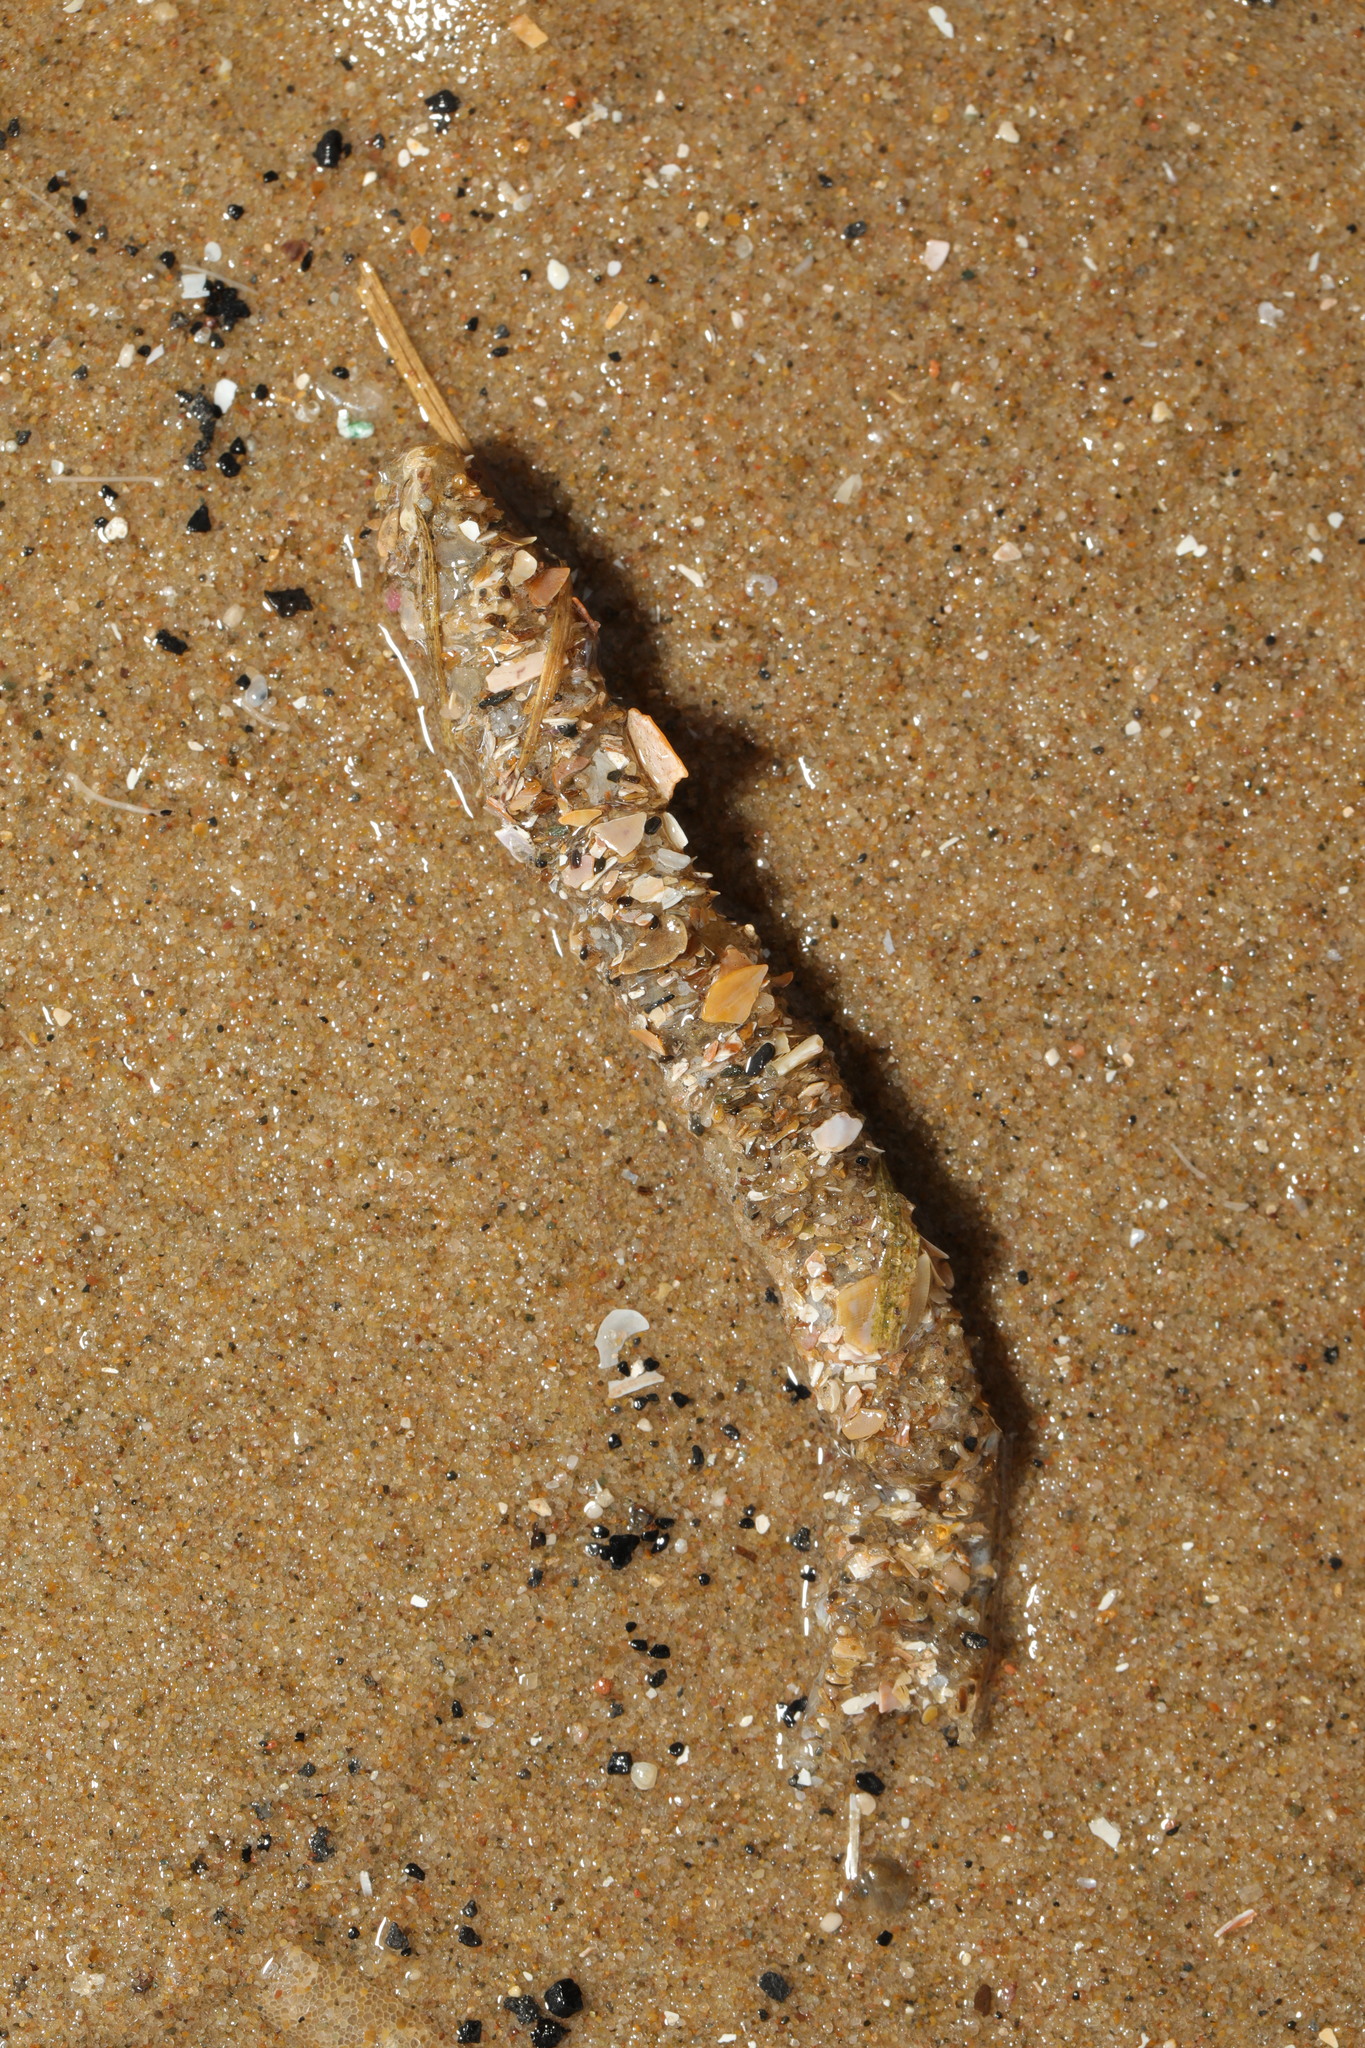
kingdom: Animalia
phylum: Annelida
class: Polychaeta
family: Terebellidae
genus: Lanice
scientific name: Lanice conchilega
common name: Sand mason
